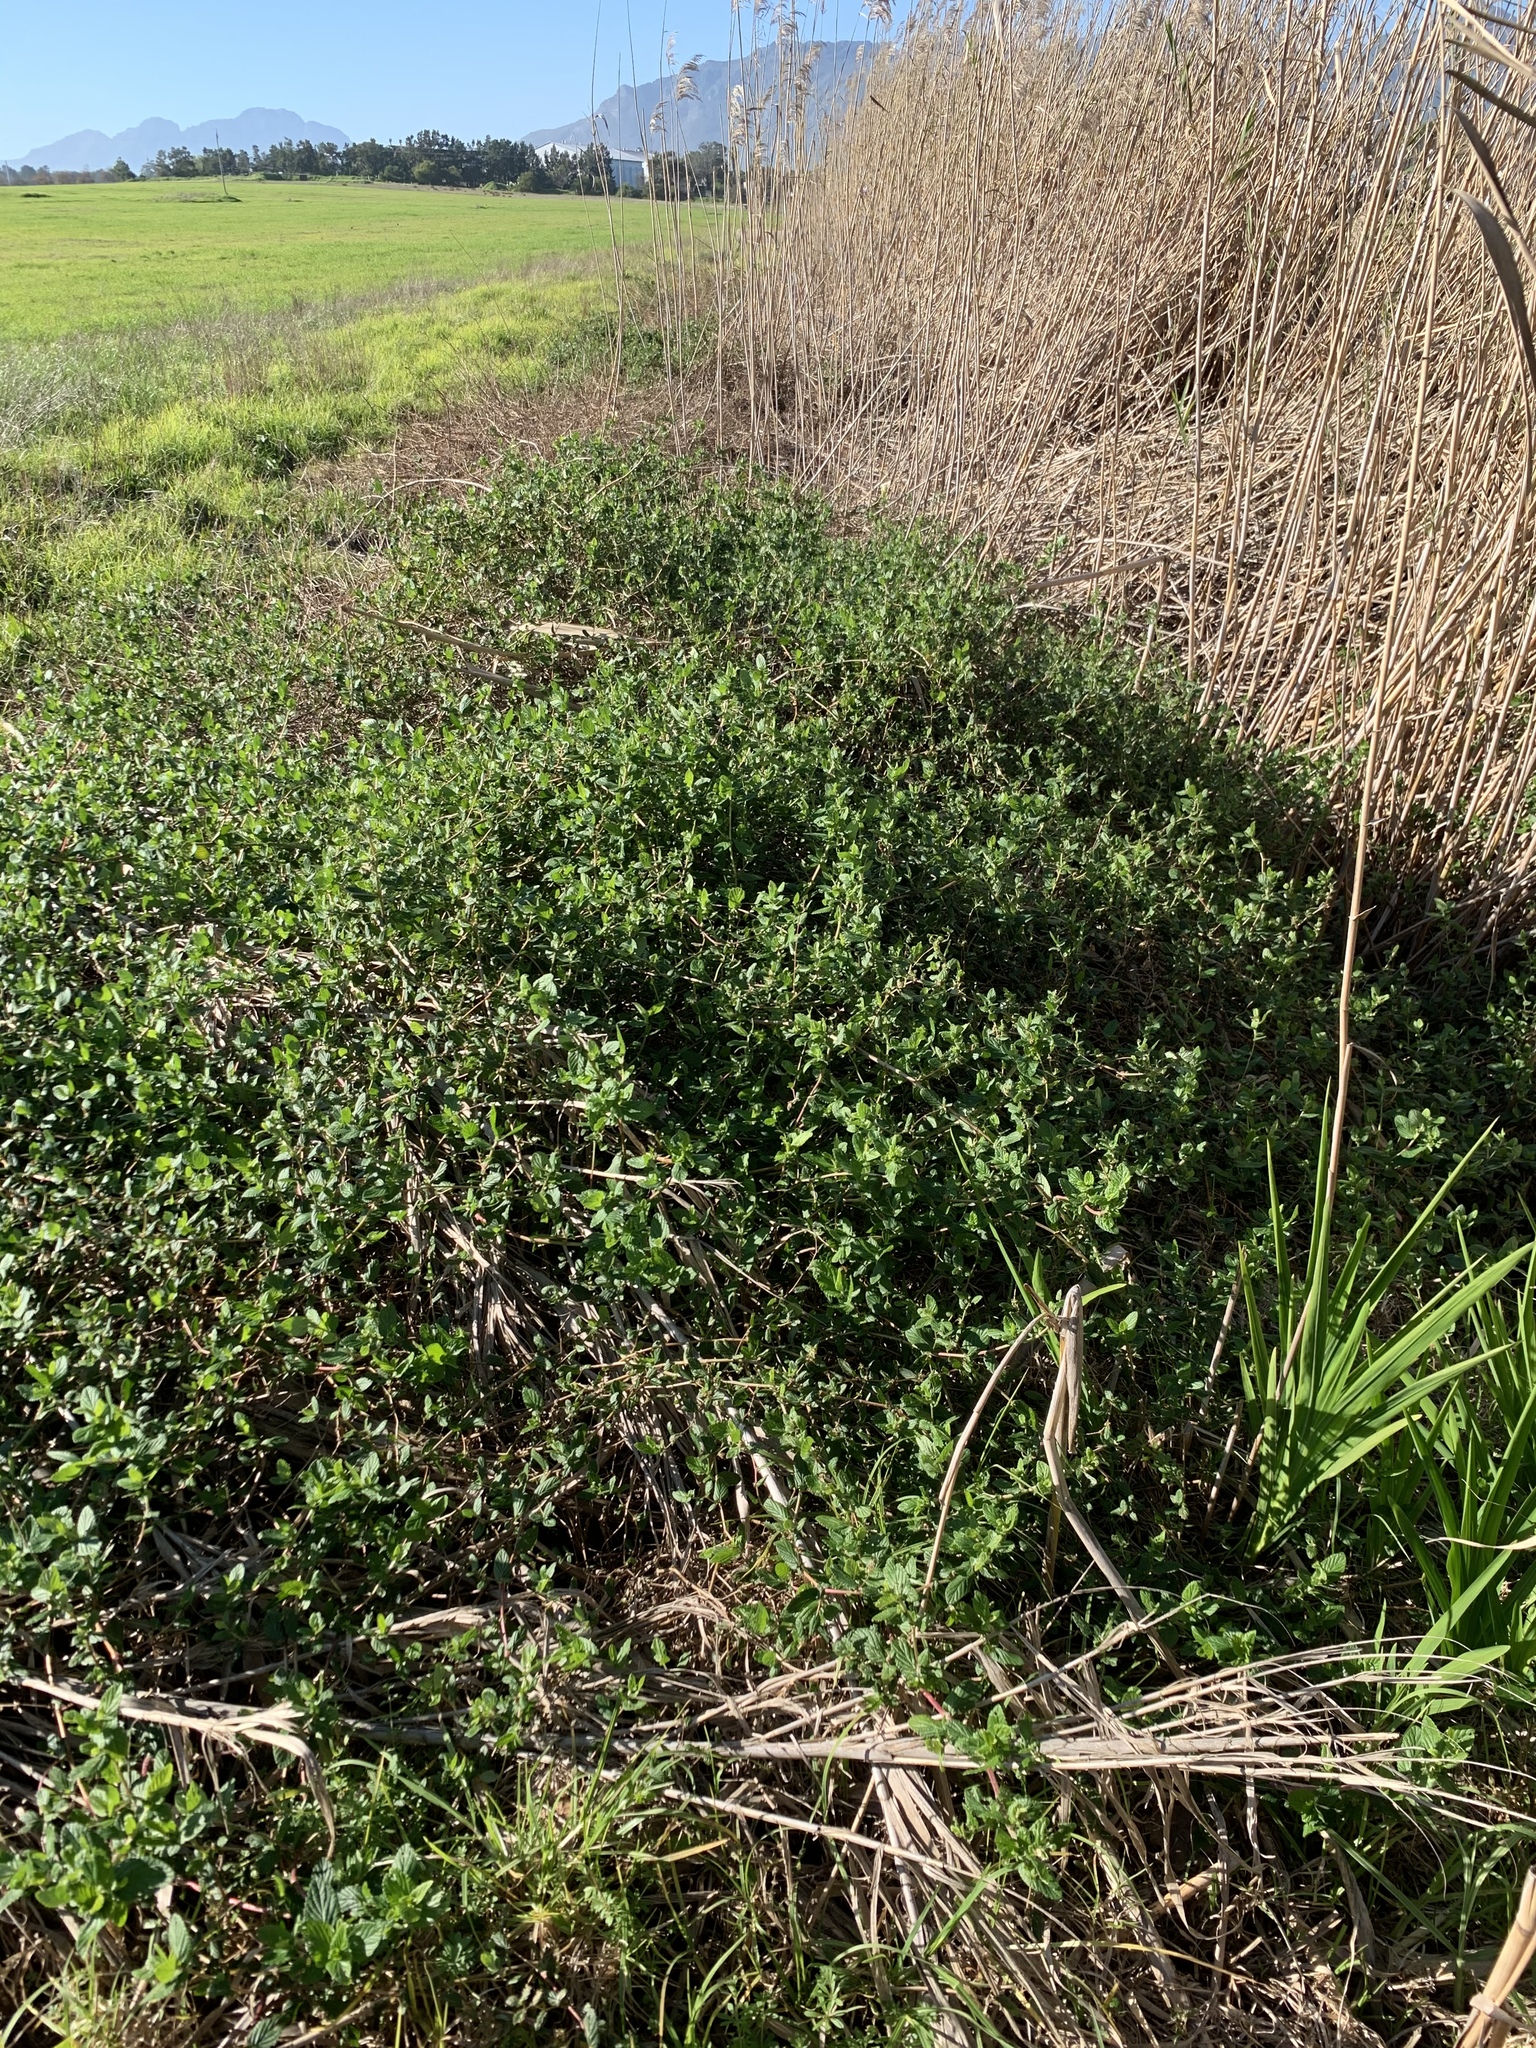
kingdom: Plantae
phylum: Tracheophyta
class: Magnoliopsida
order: Rosales
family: Rosaceae
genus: Cliffortia
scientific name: Cliffortia odorata
